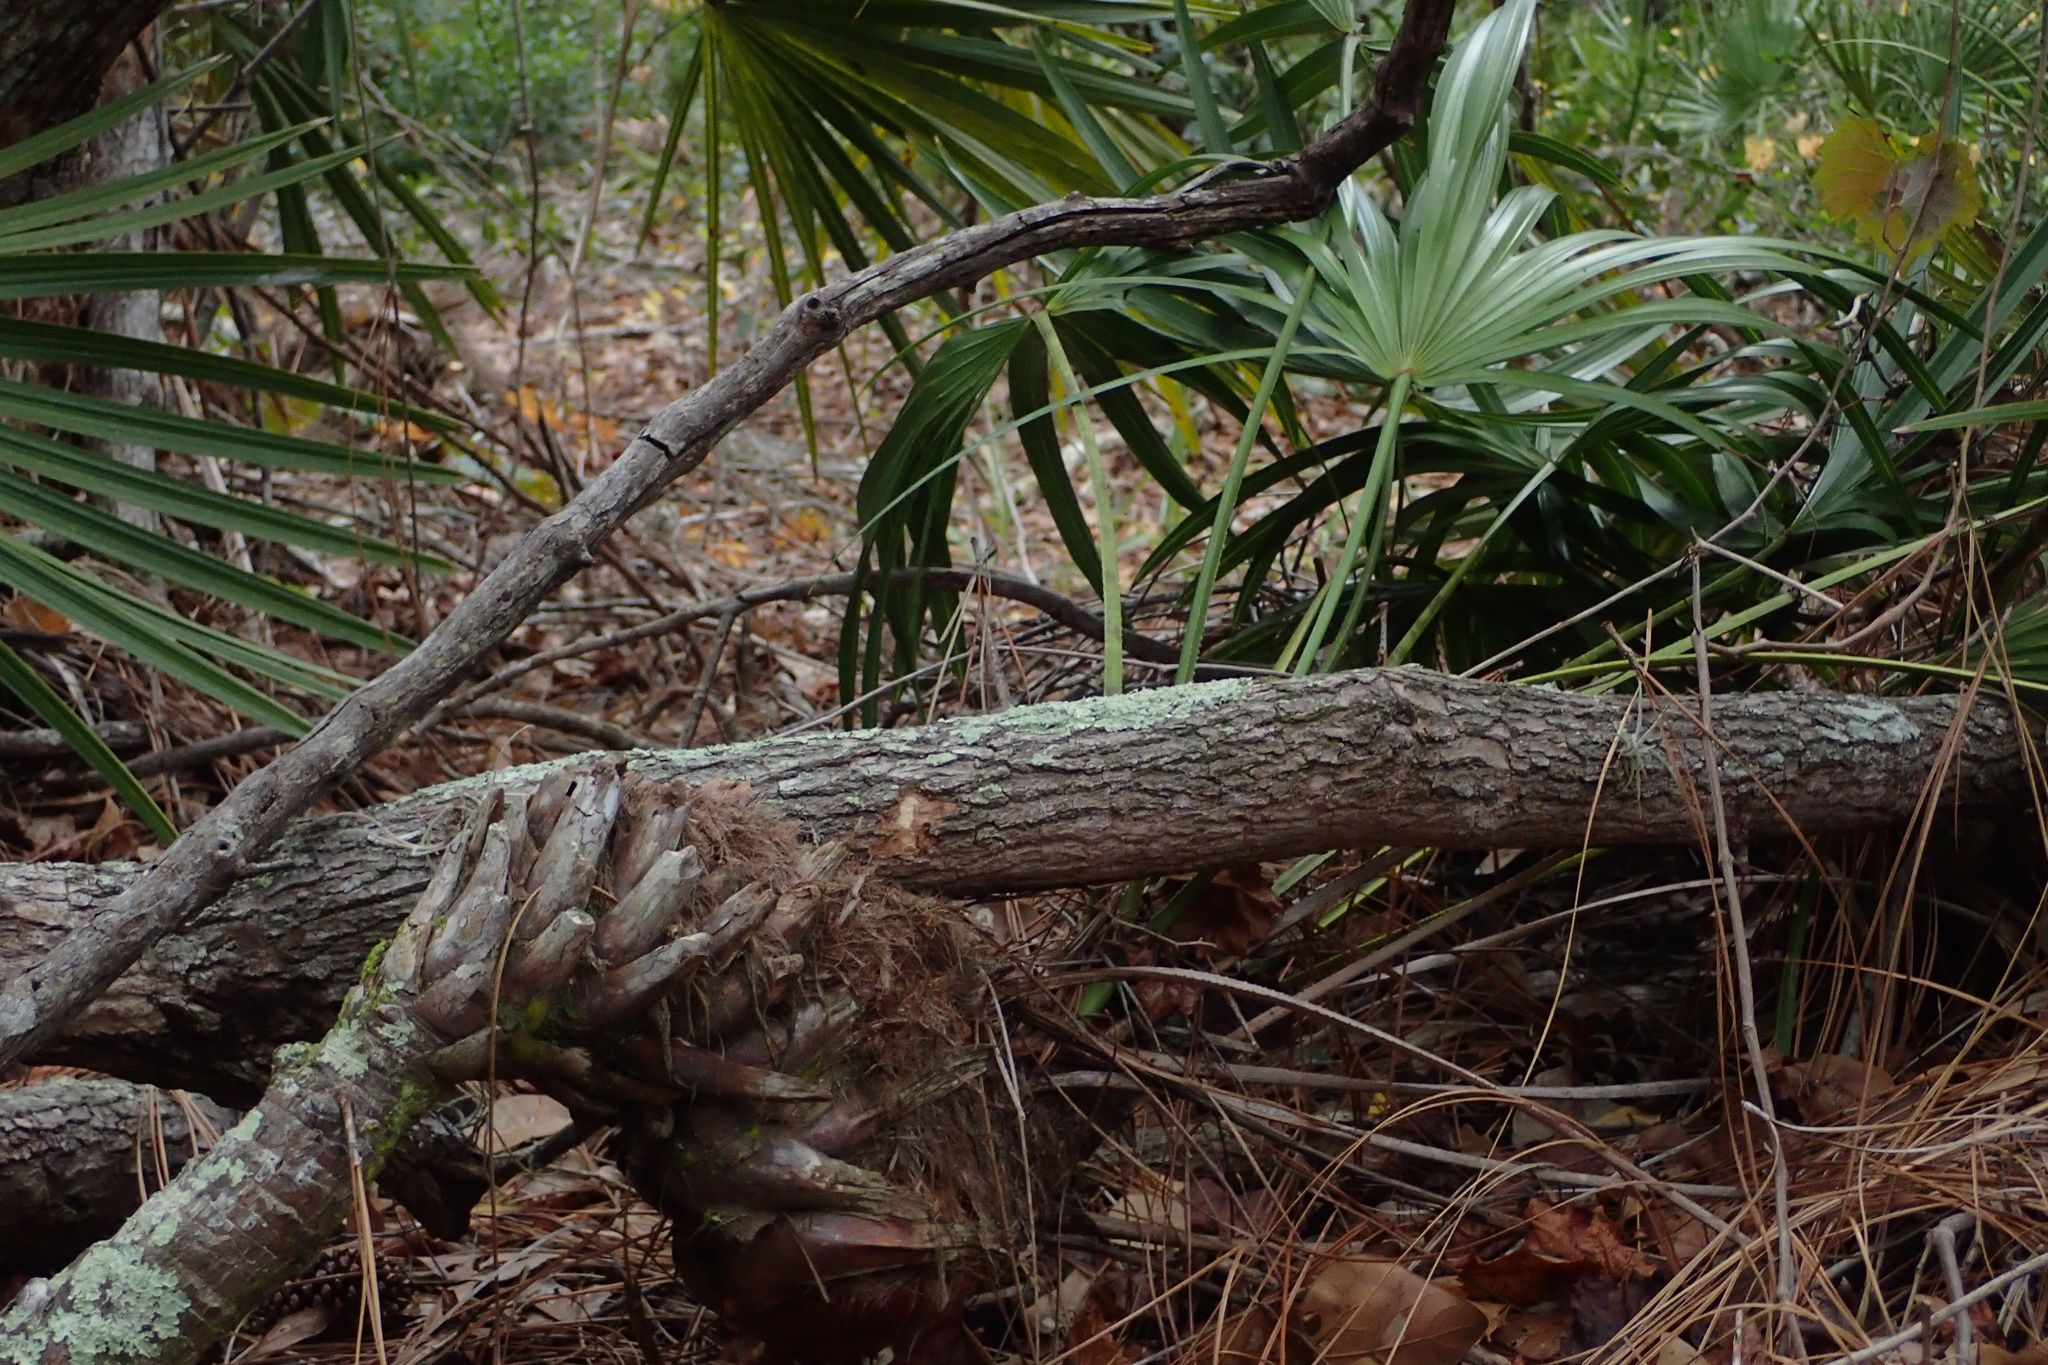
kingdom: Plantae
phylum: Tracheophyta
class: Liliopsida
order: Arecales
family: Arecaceae
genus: Serenoa
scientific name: Serenoa repens
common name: Saw-palmetto
